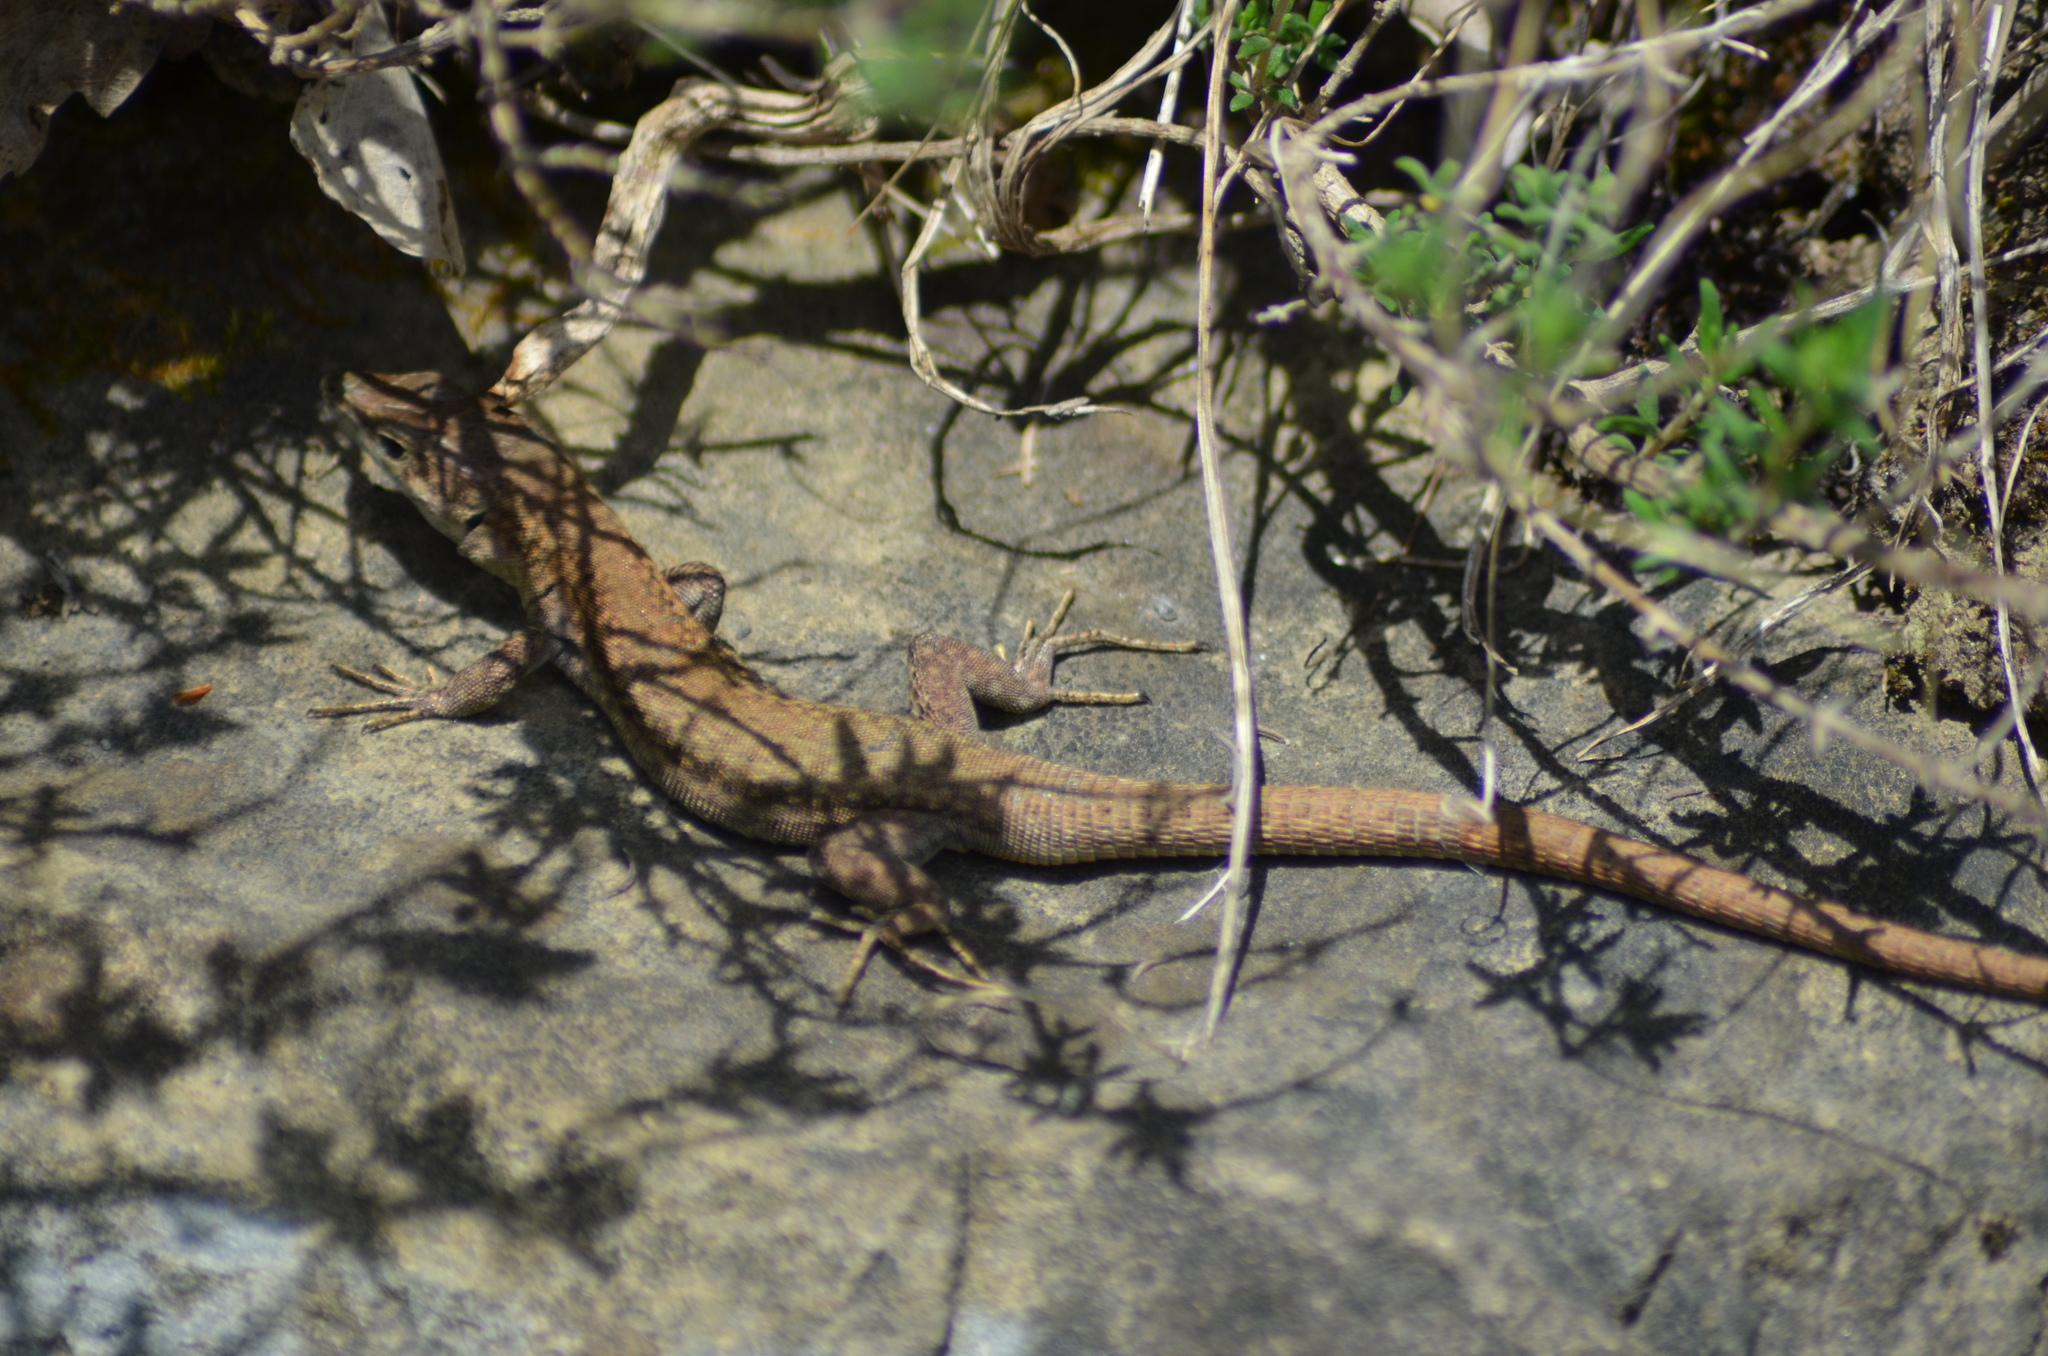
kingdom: Animalia
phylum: Chordata
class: Squamata
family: Lacertidae
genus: Podarcis
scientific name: Podarcis liolepis
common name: Catalonian wall lizard
